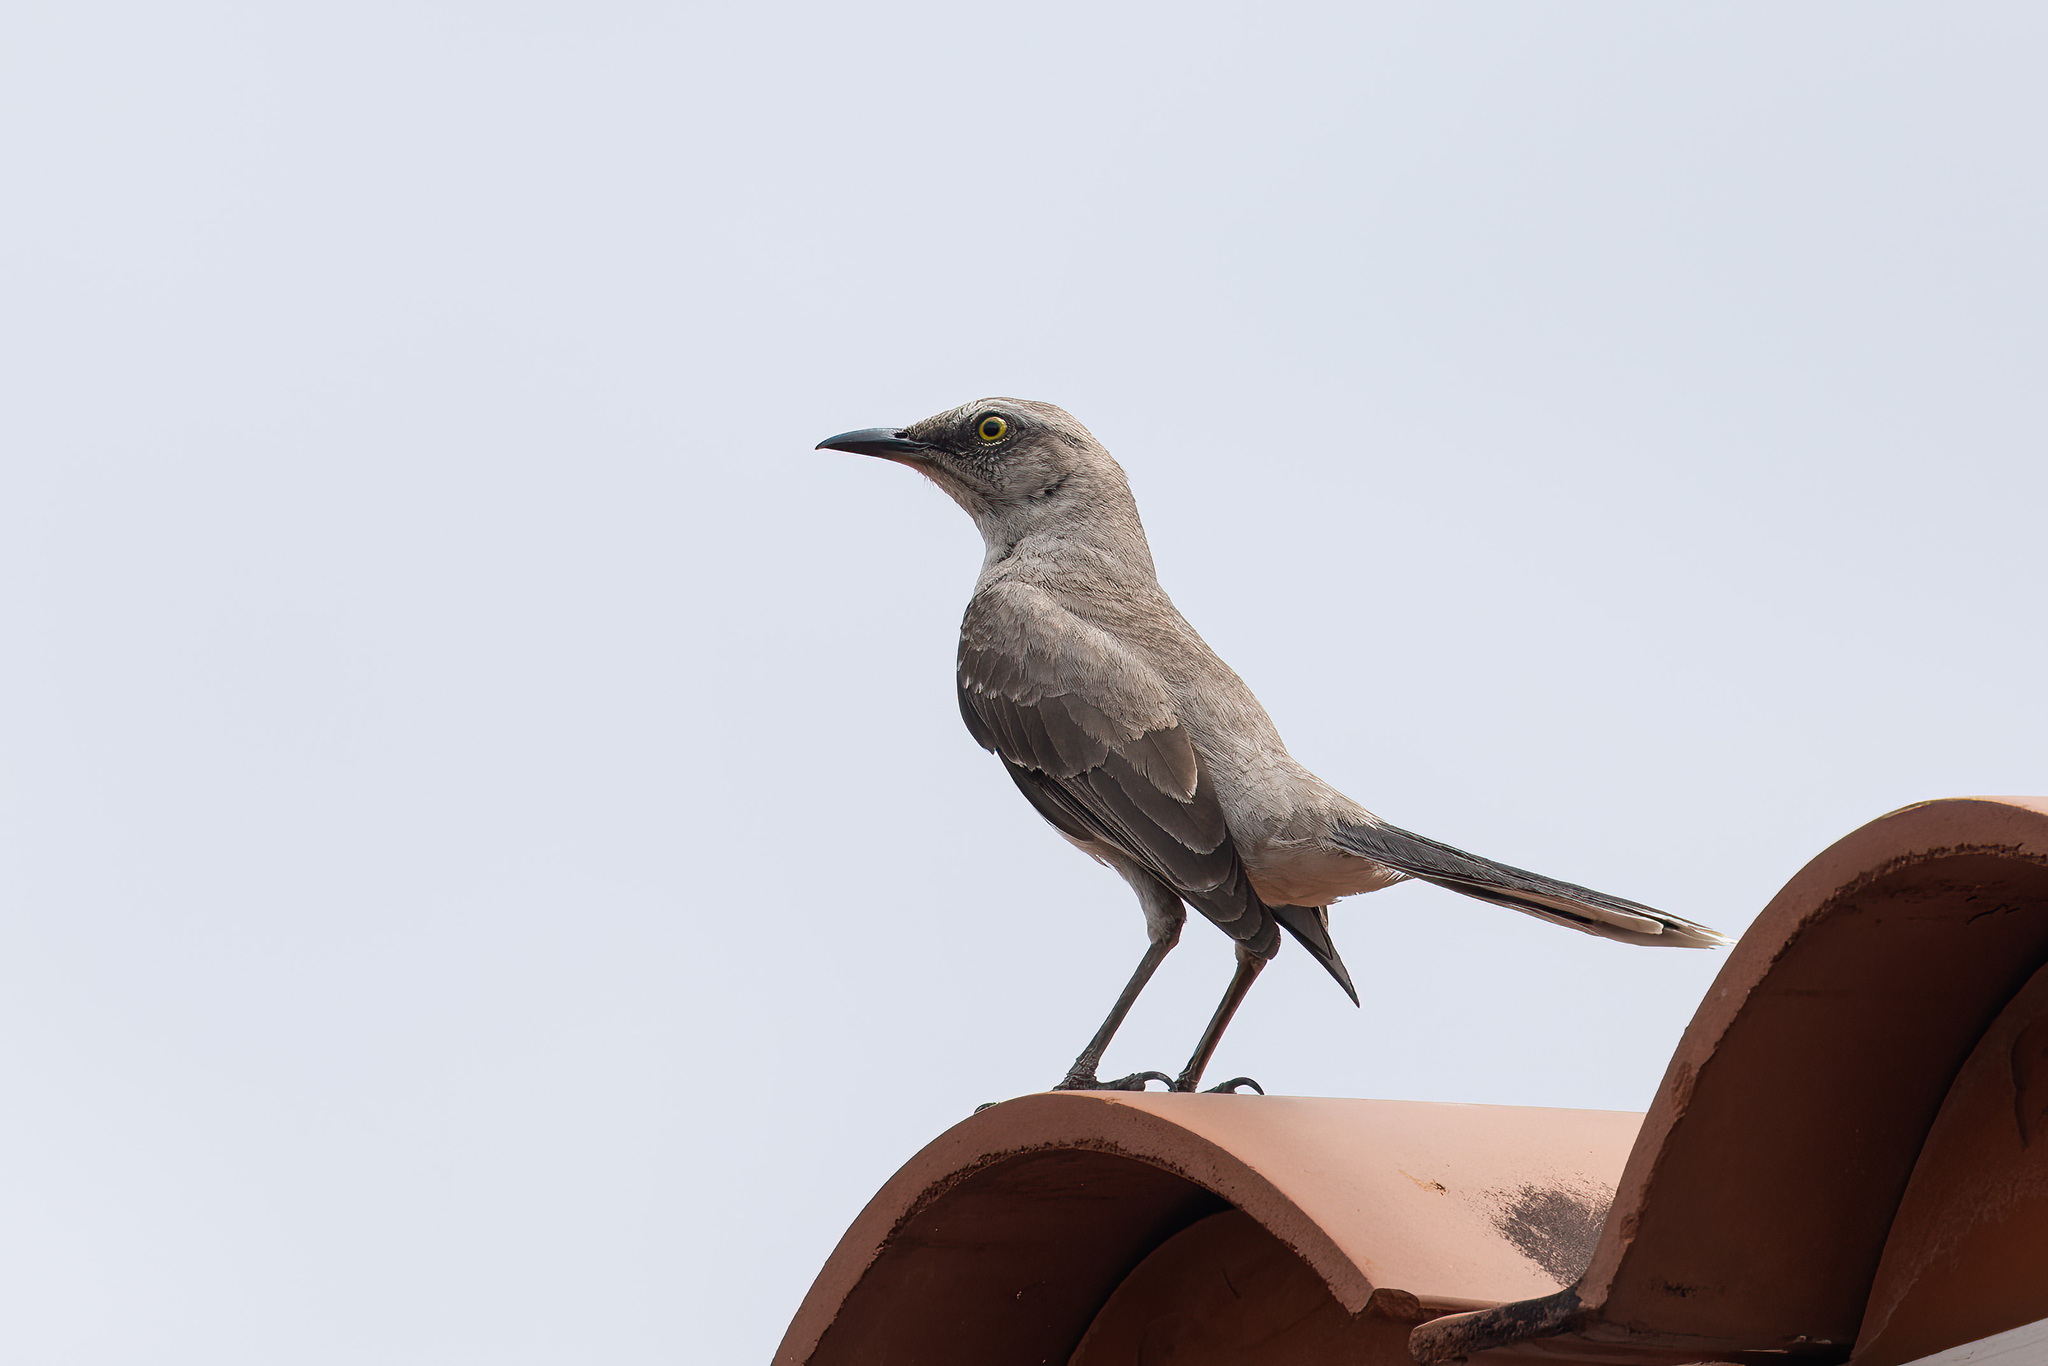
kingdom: Animalia
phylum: Chordata
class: Aves
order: Passeriformes
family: Mimidae
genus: Mimus
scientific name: Mimus gilvus
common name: Tropical mockingbird
